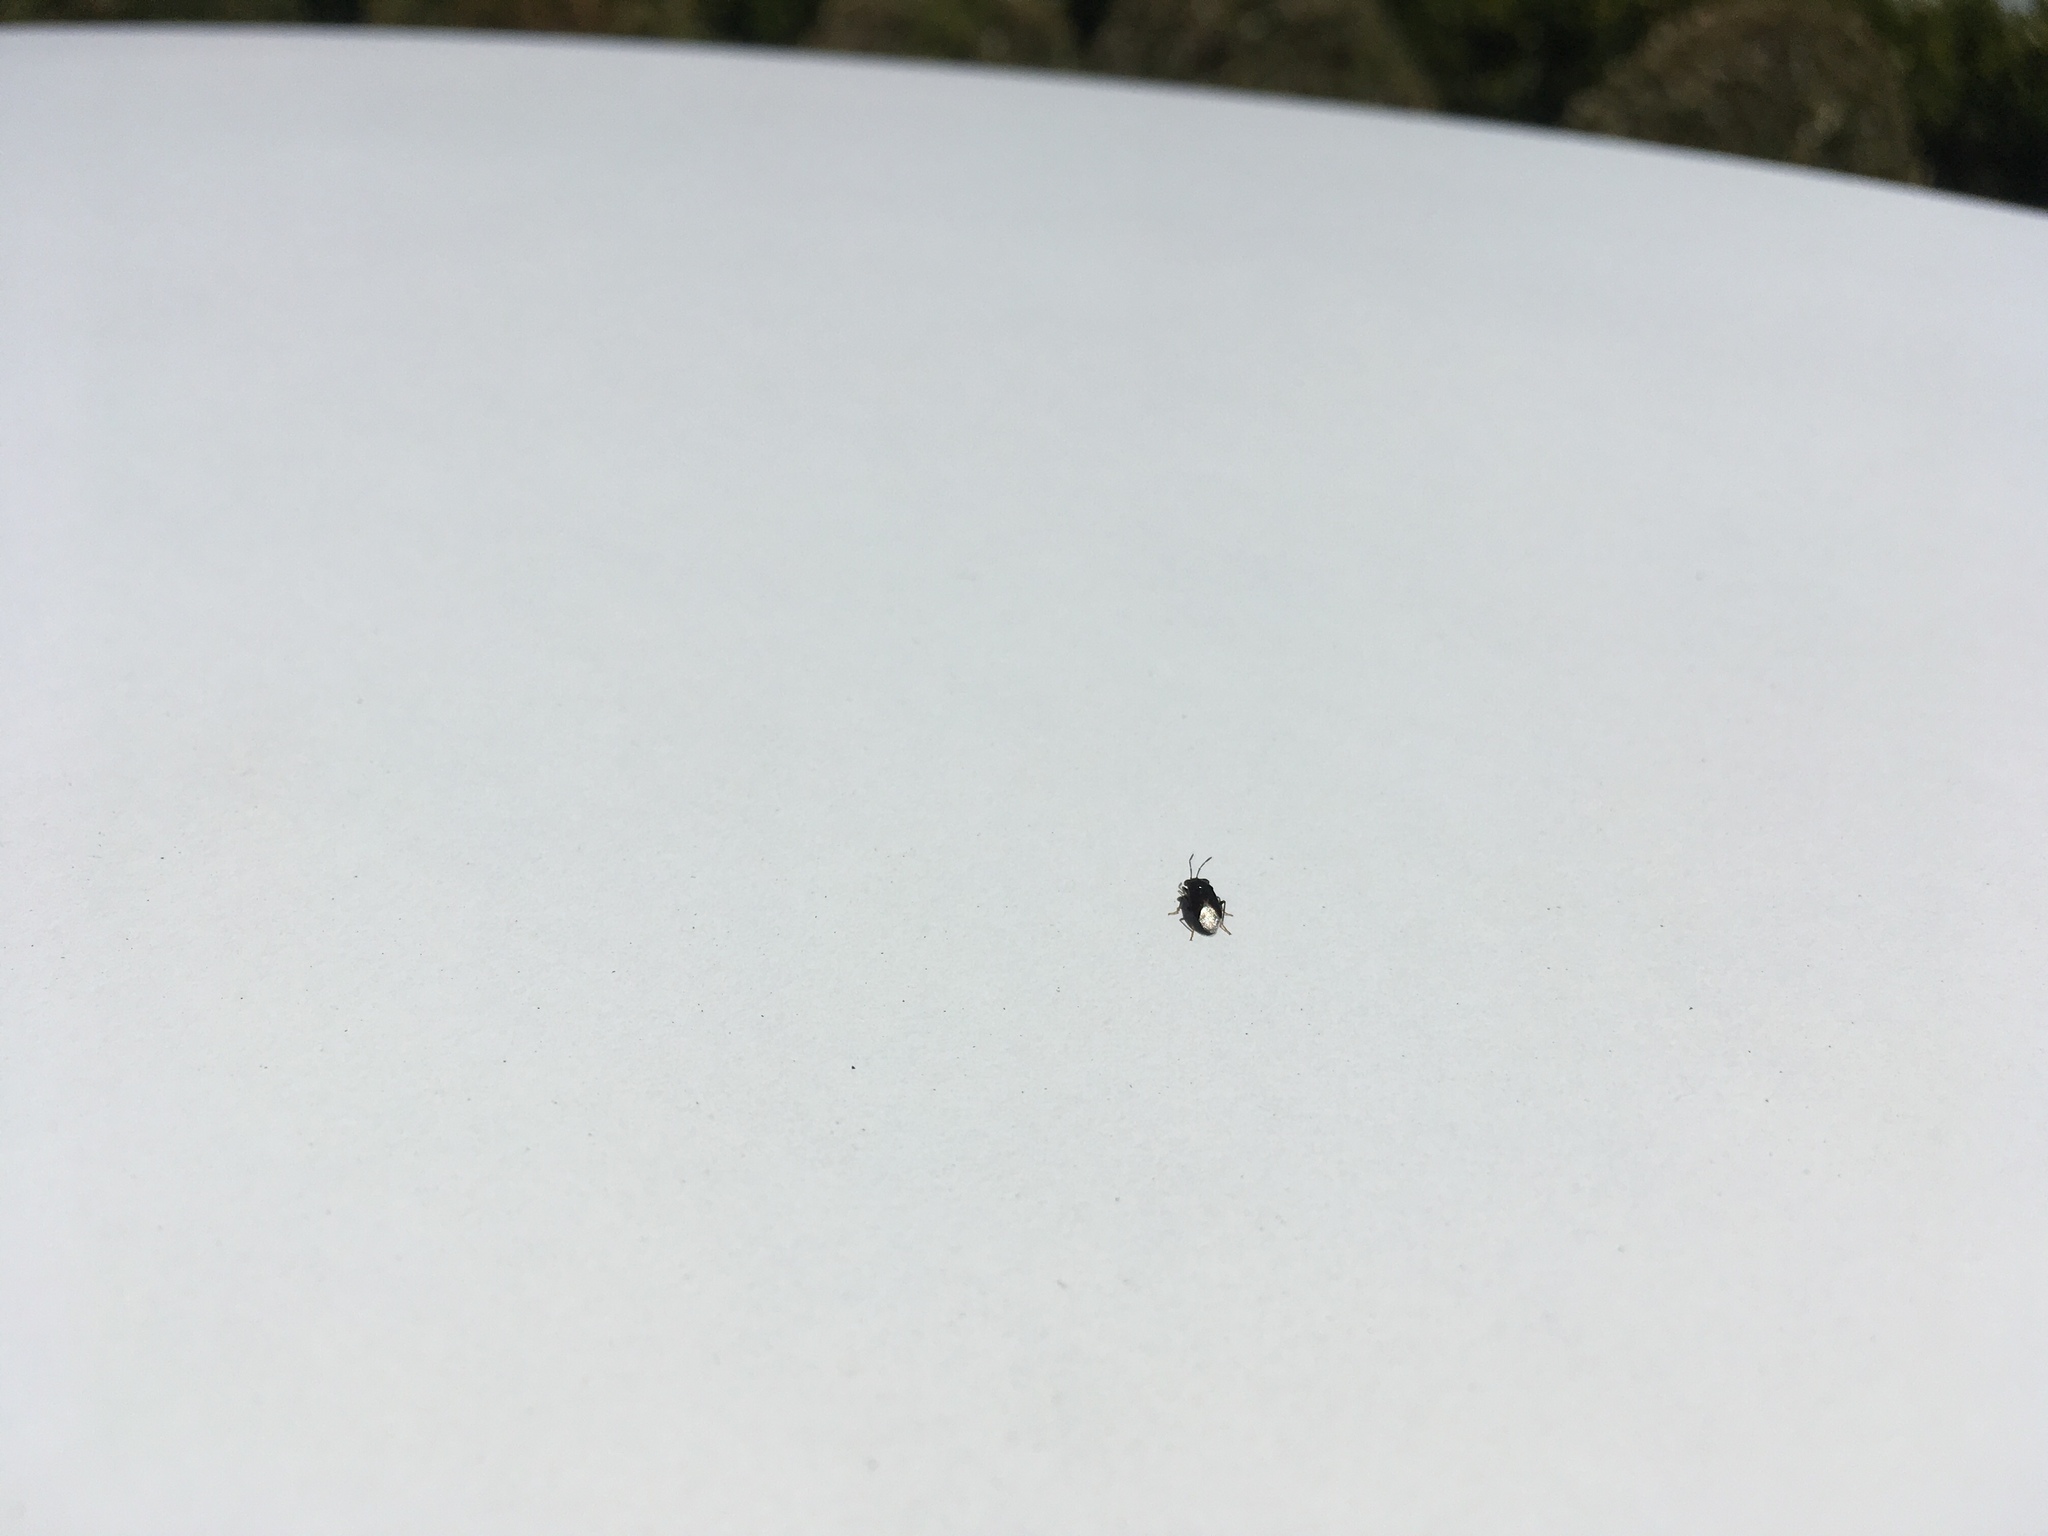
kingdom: Animalia
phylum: Arthropoda
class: Insecta
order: Hemiptera
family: Geocoridae
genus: Geocoris
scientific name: Geocoris atricolor
